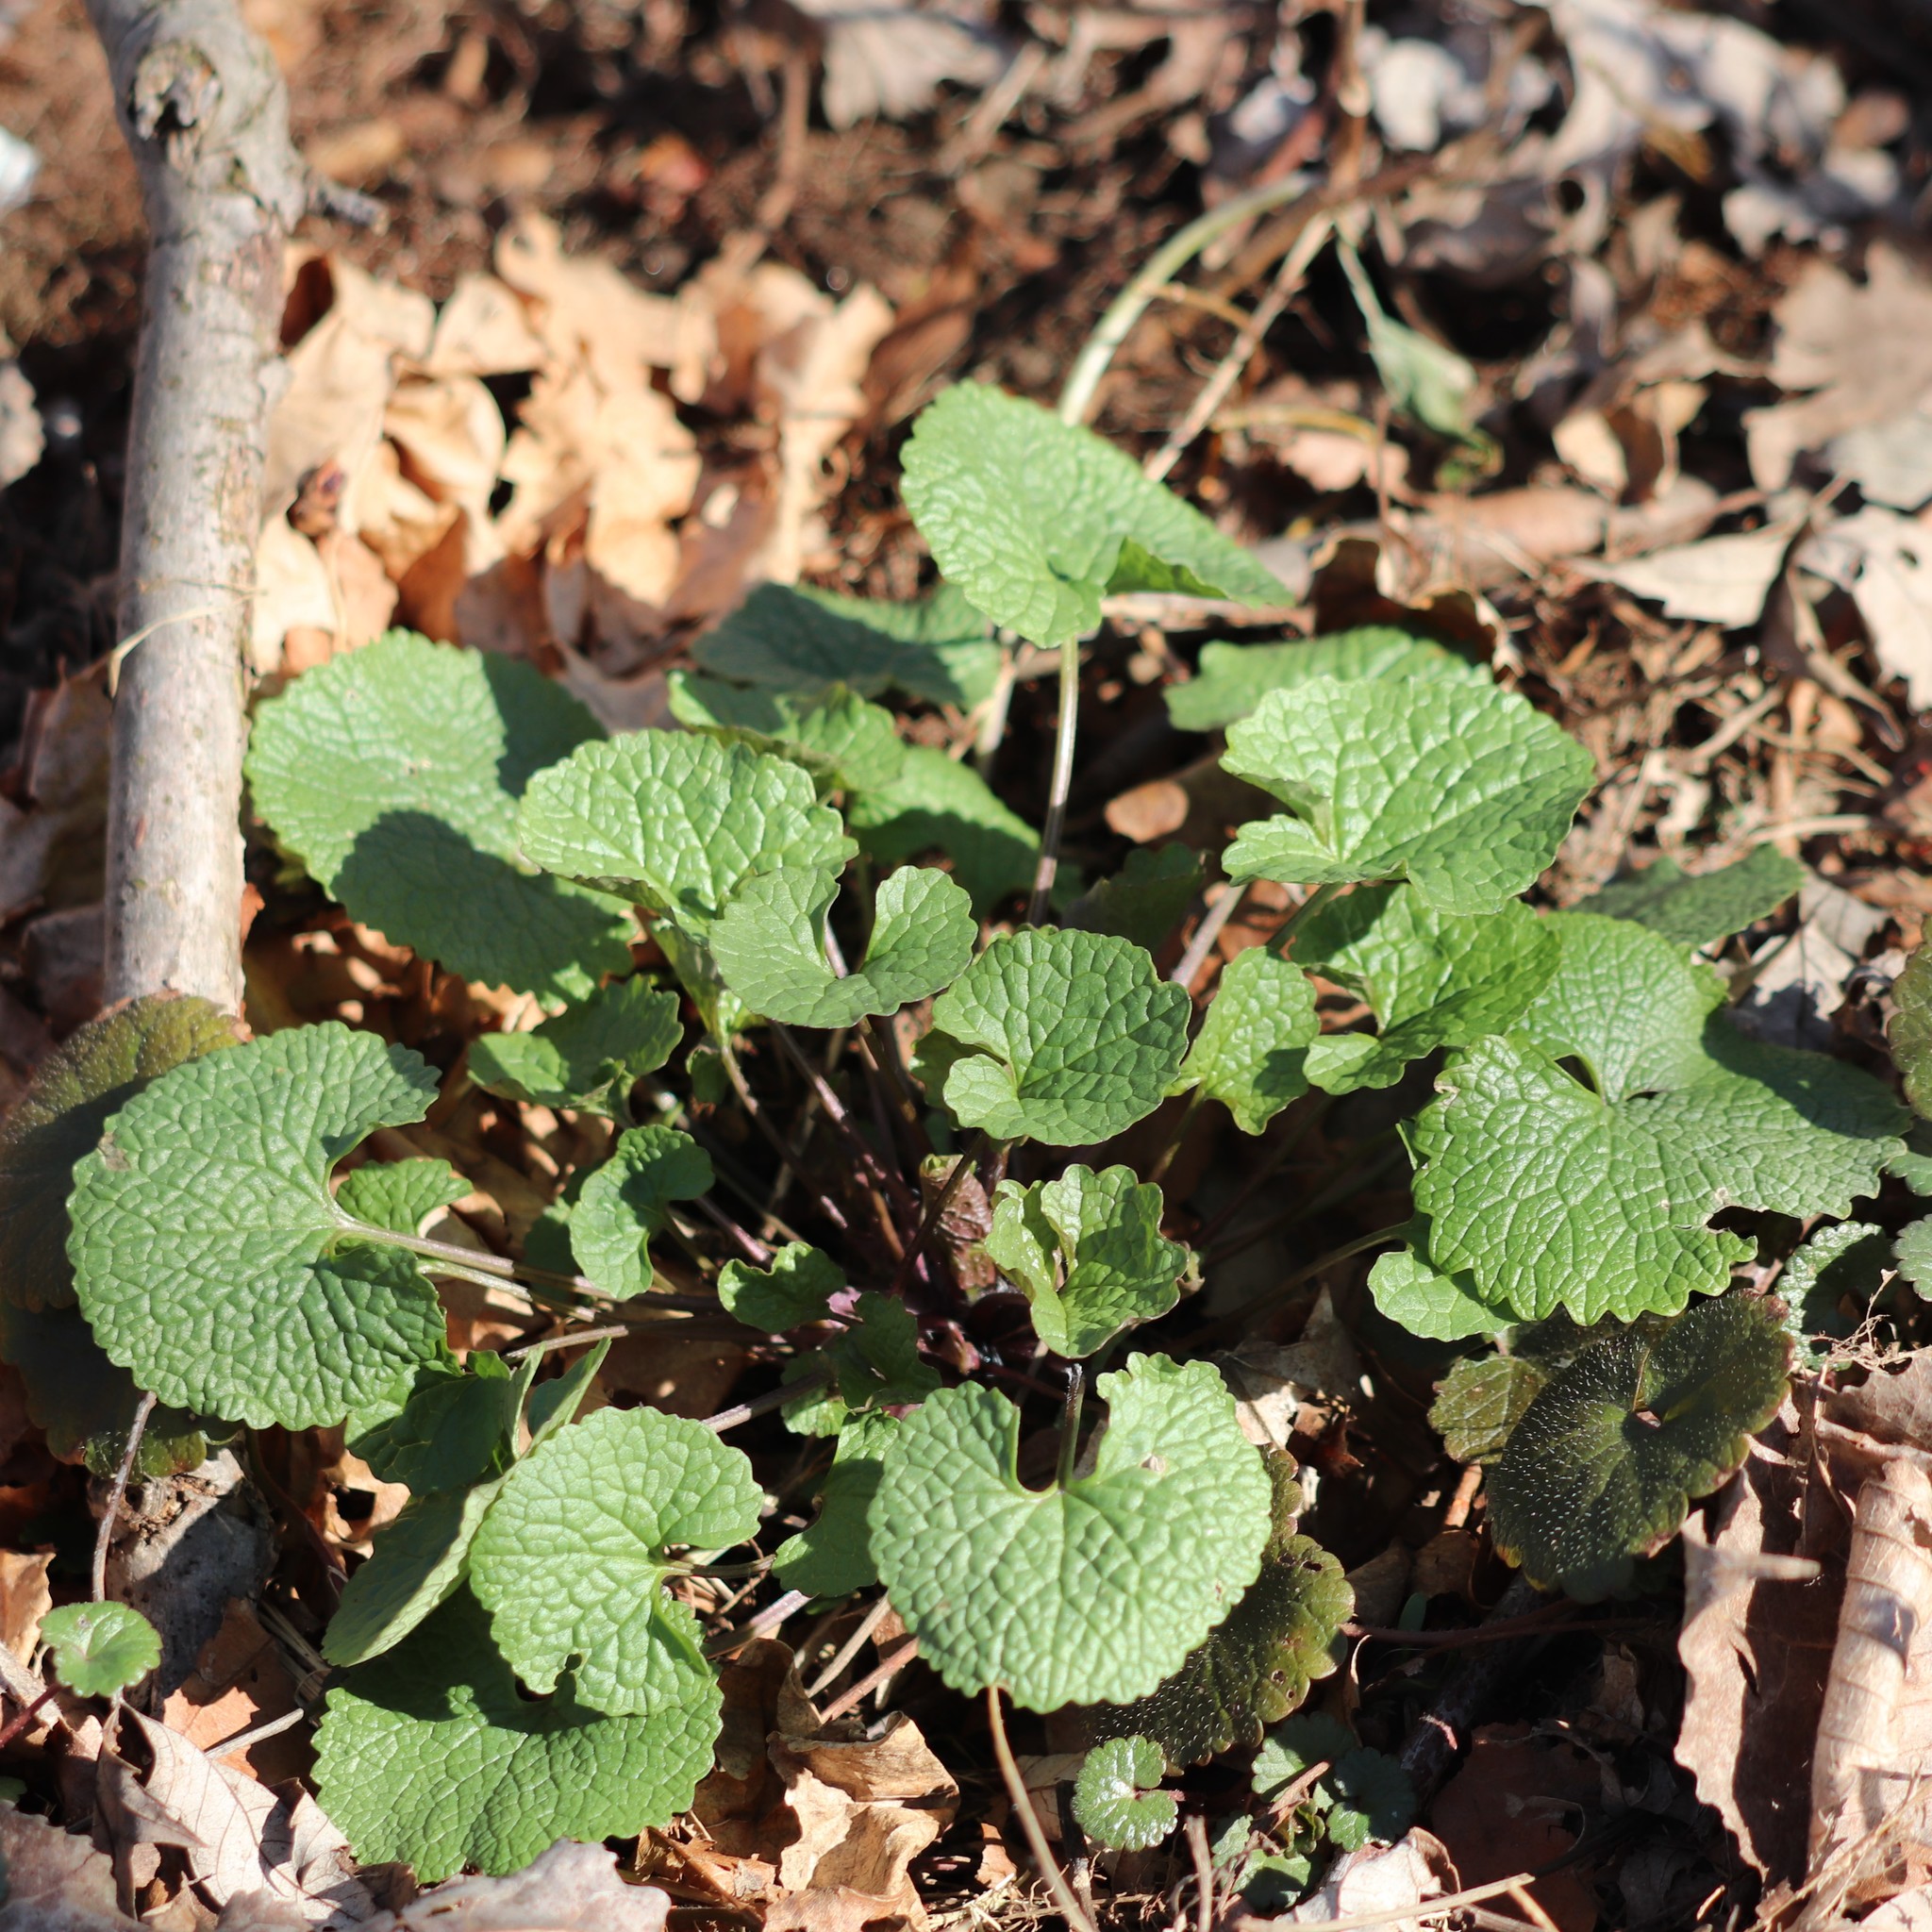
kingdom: Plantae
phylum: Tracheophyta
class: Magnoliopsida
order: Brassicales
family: Brassicaceae
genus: Alliaria
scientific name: Alliaria petiolata
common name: Garlic mustard
